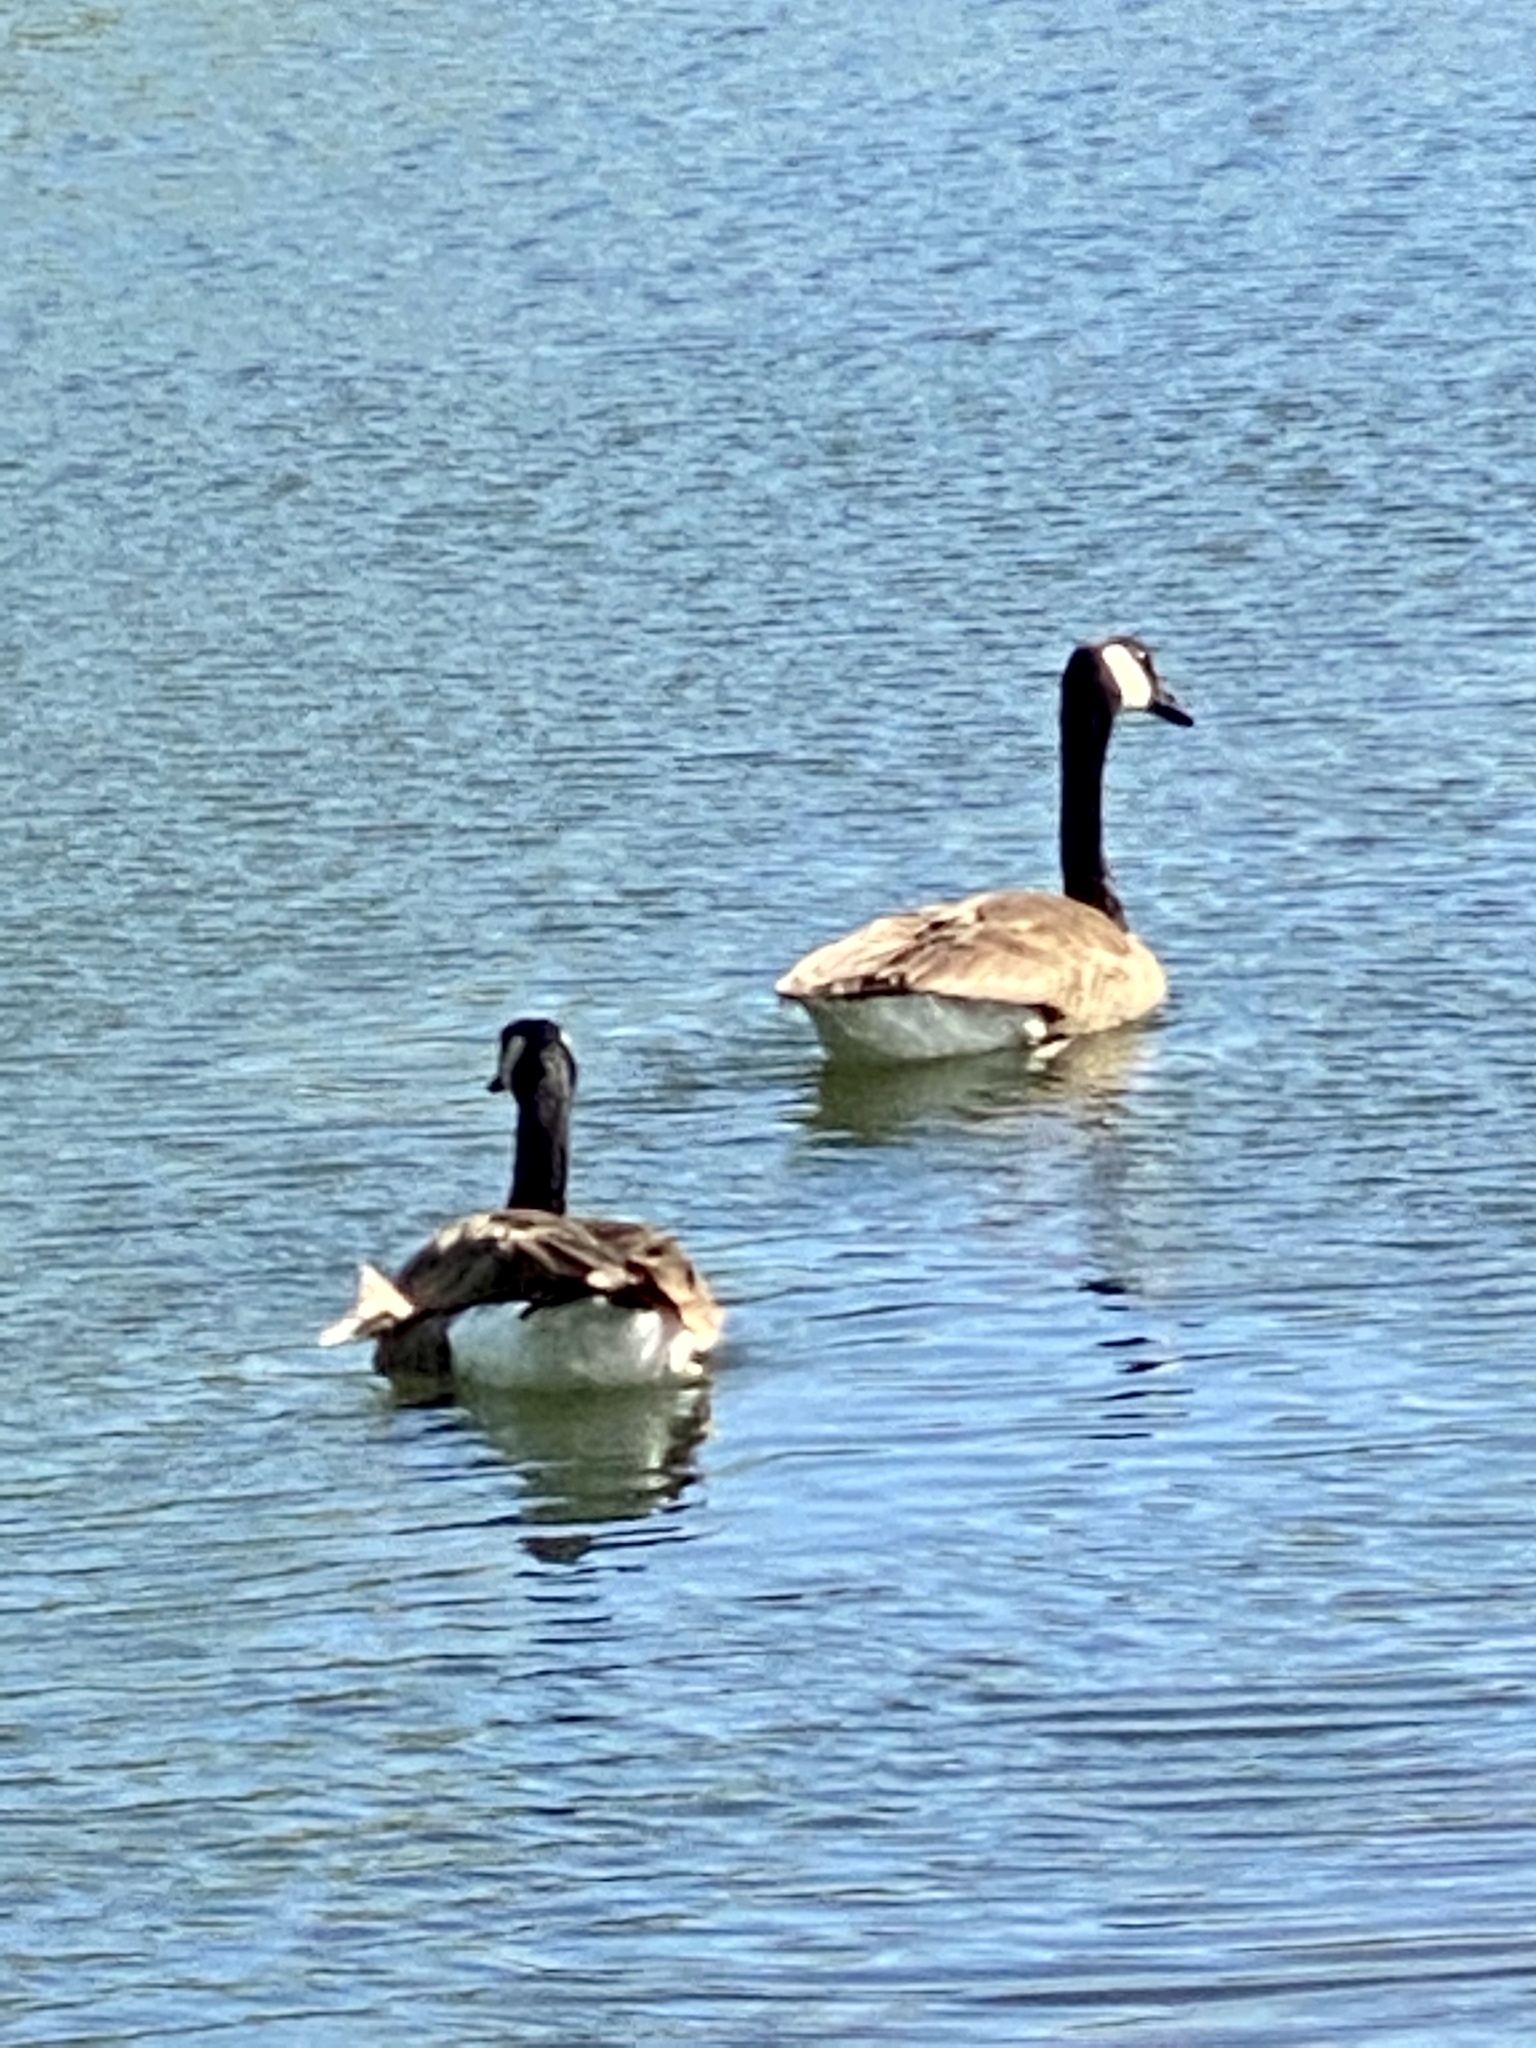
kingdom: Animalia
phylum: Chordata
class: Aves
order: Anseriformes
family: Anatidae
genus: Branta
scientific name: Branta canadensis
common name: Canada goose
